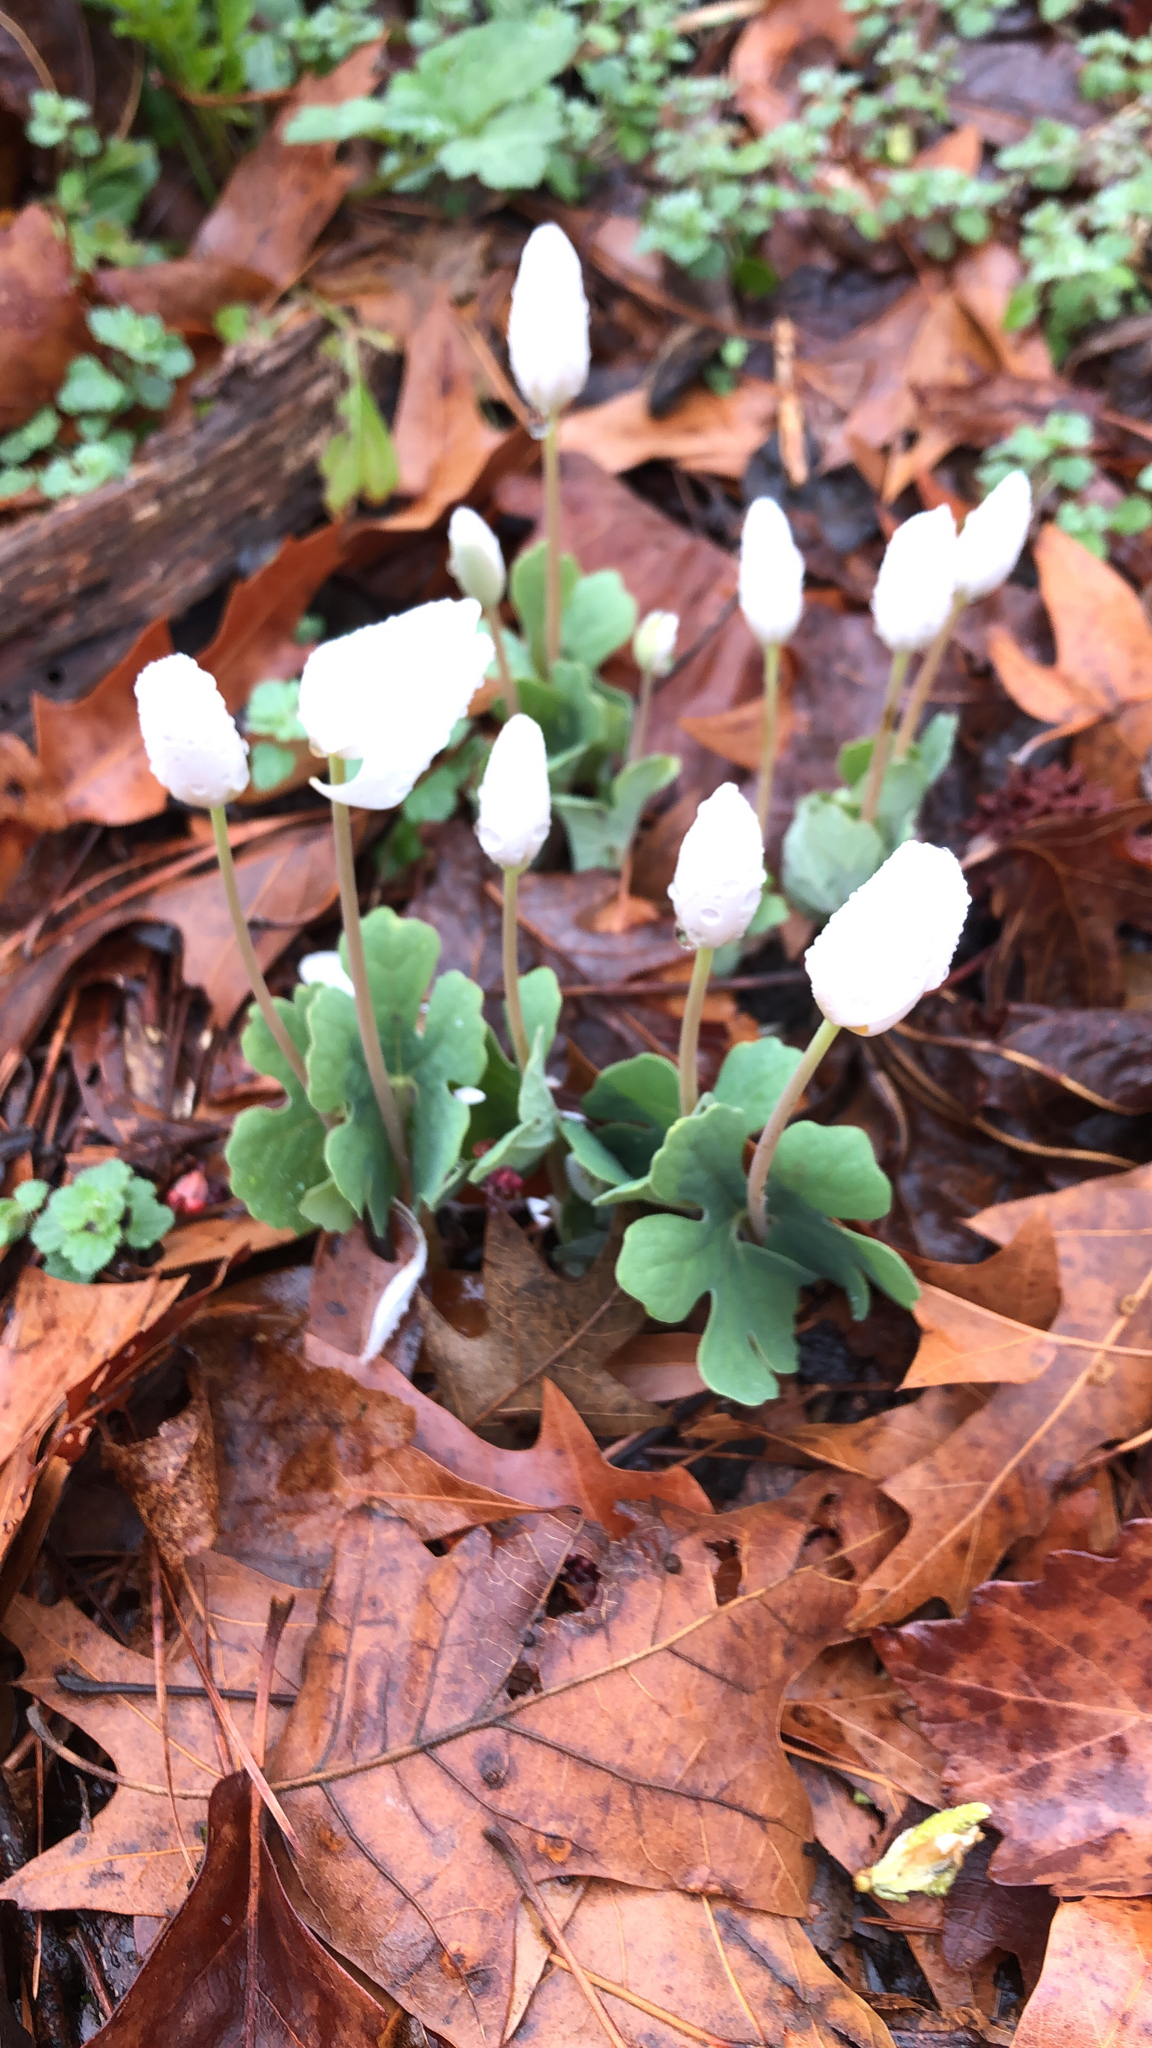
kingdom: Plantae
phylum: Tracheophyta
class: Magnoliopsida
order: Ranunculales
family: Papaveraceae
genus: Sanguinaria
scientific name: Sanguinaria canadensis
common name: Bloodroot
